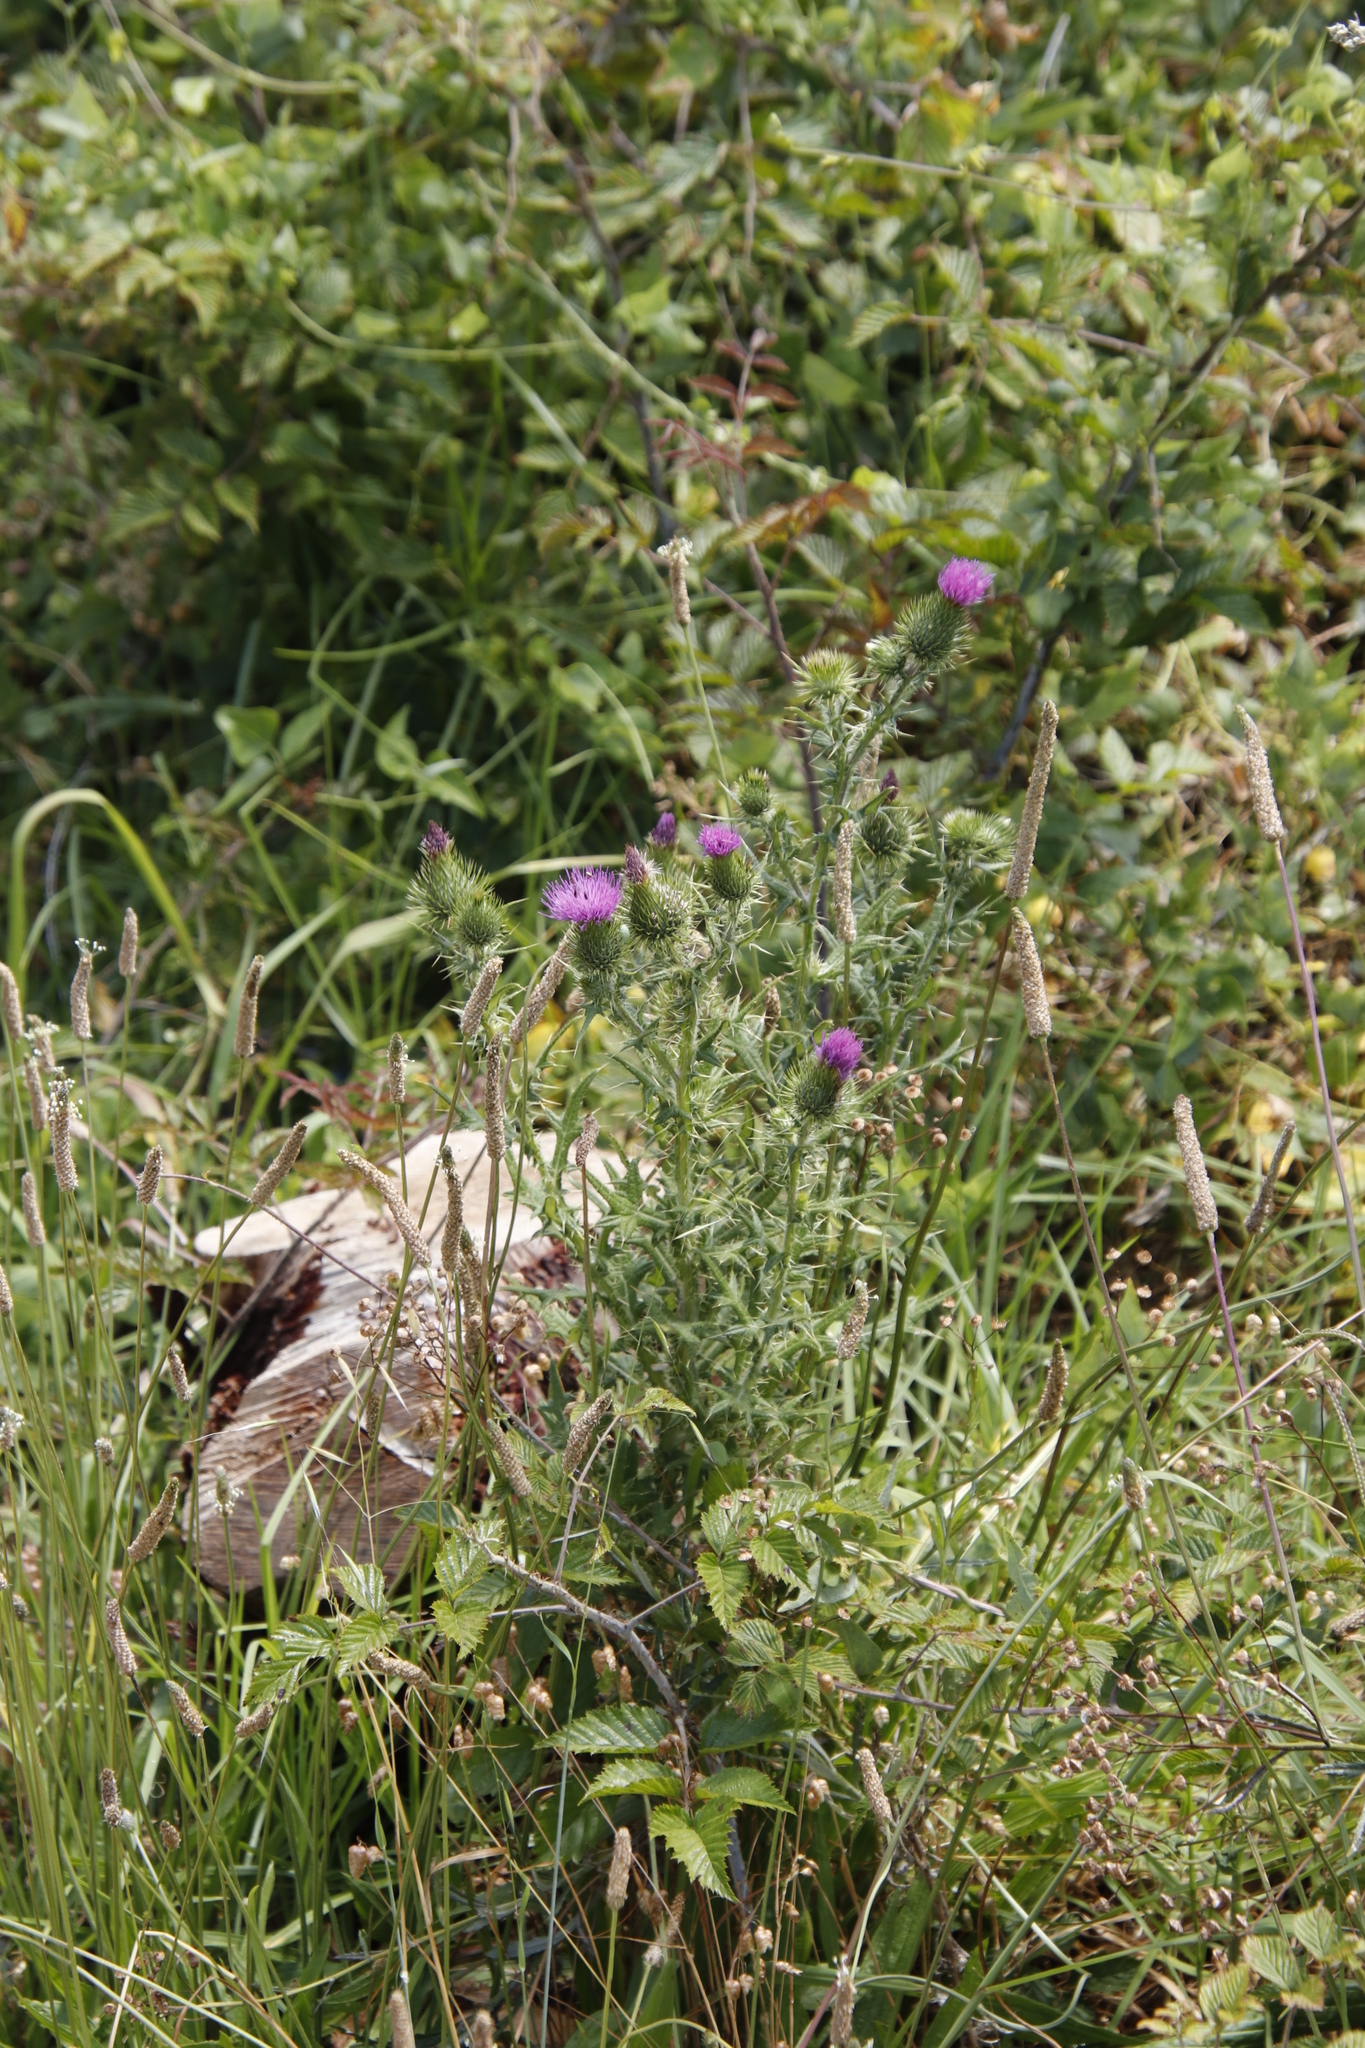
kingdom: Plantae
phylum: Tracheophyta
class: Magnoliopsida
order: Asterales
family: Asteraceae
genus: Cirsium
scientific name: Cirsium vulgare
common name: Bull thistle
